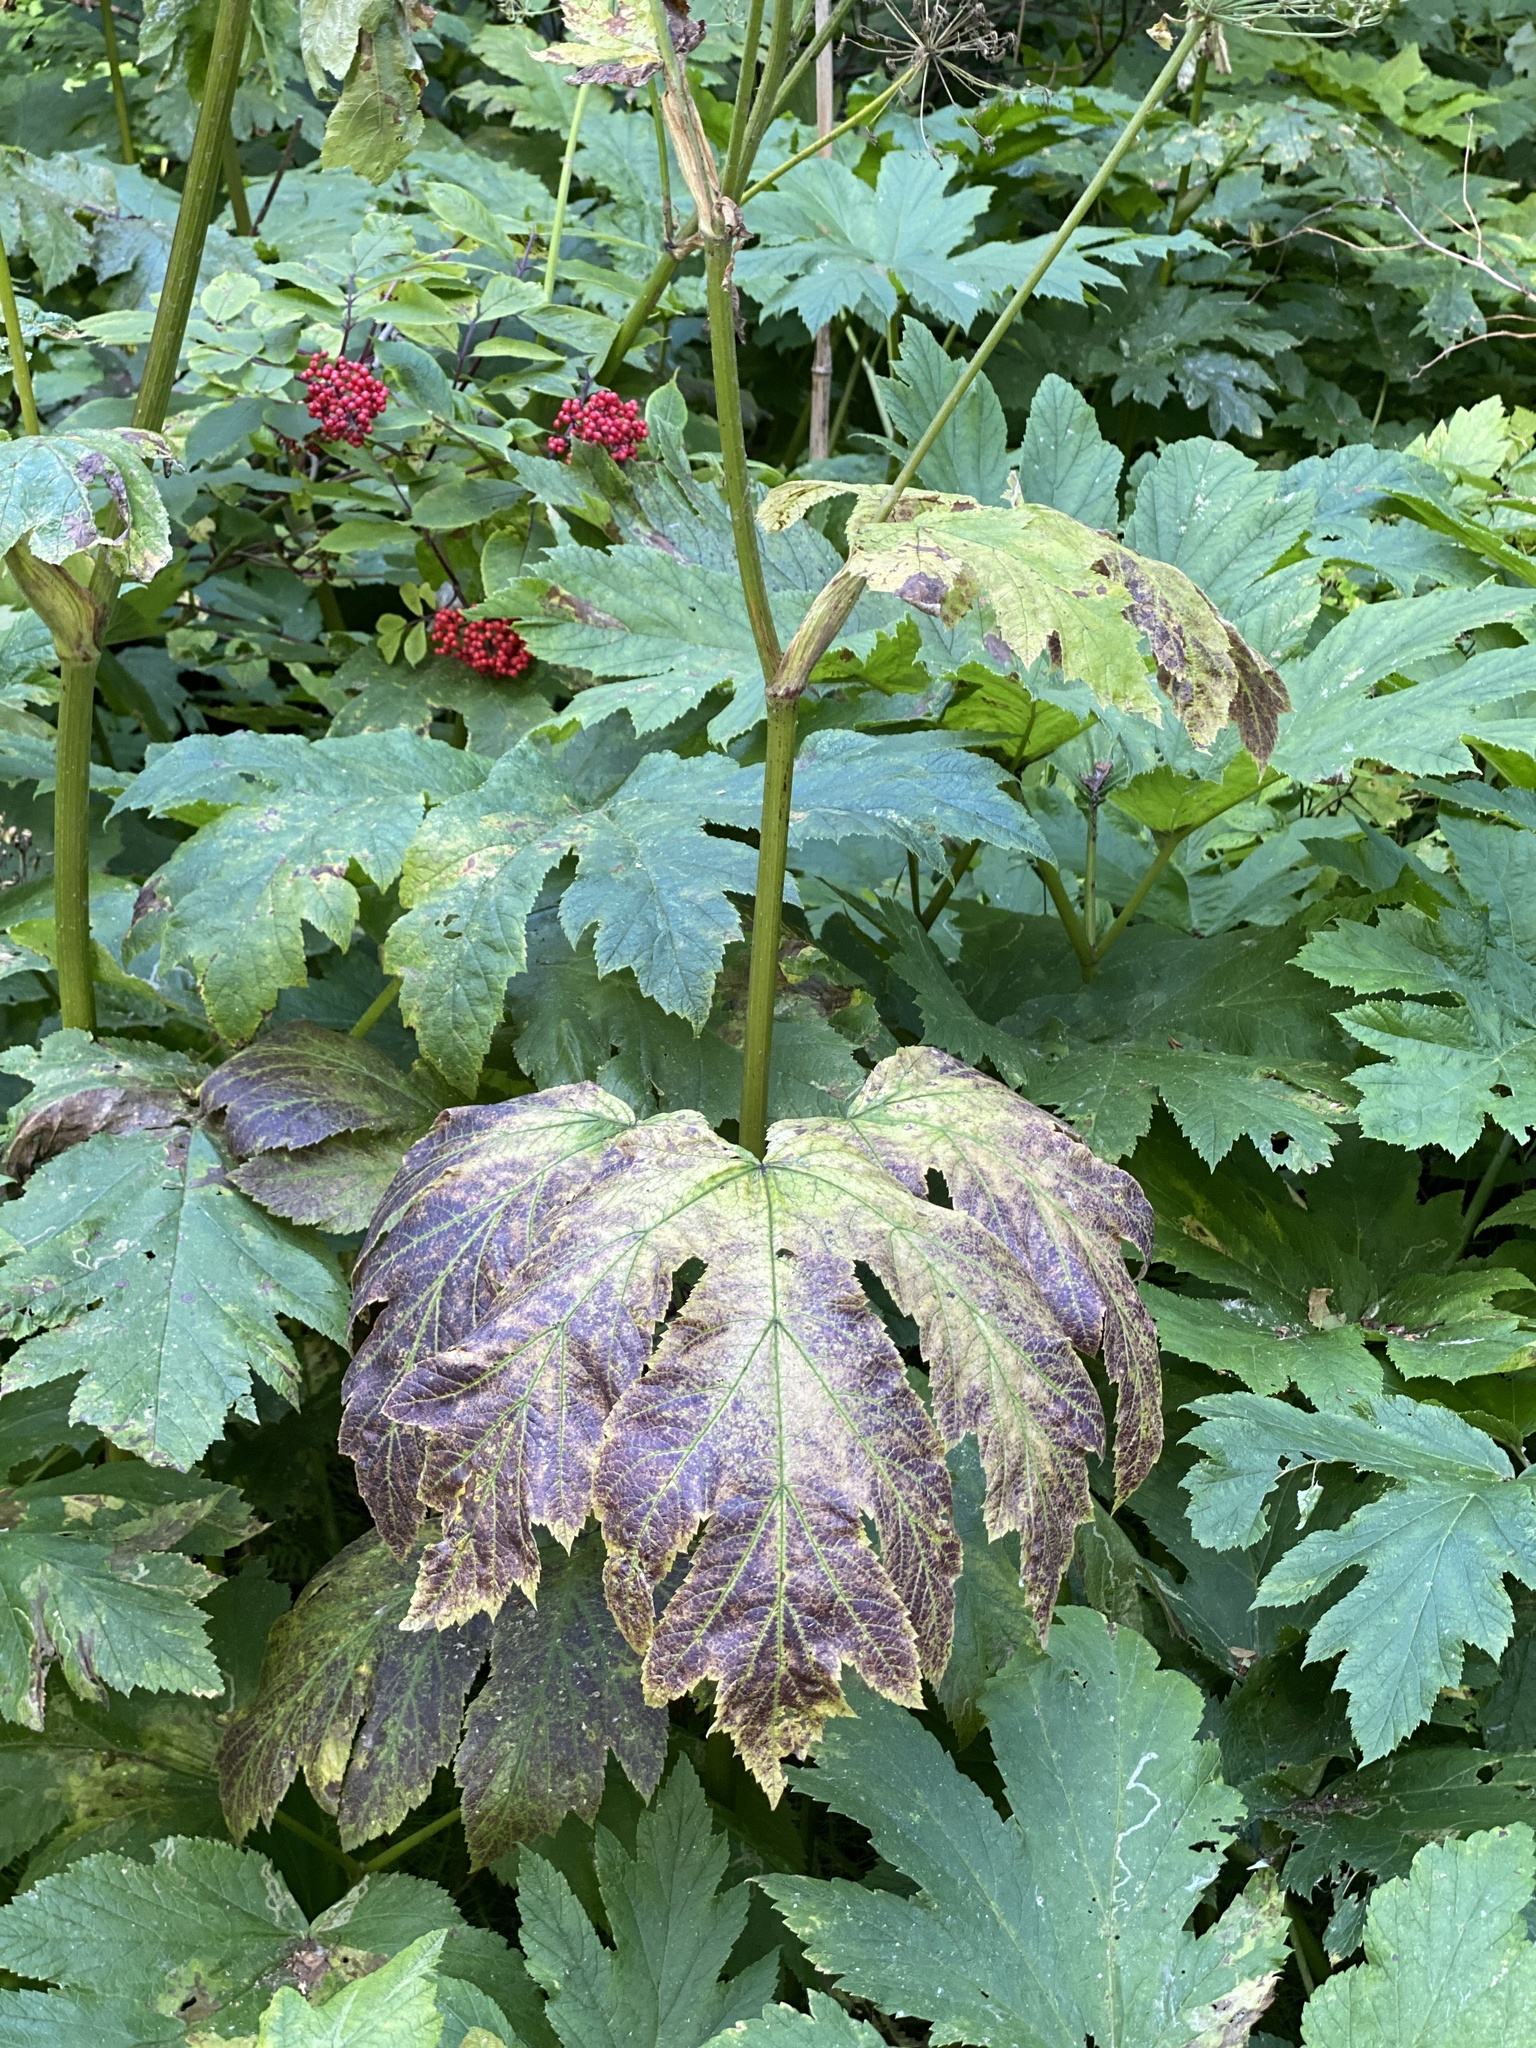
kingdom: Plantae
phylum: Tracheophyta
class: Magnoliopsida
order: Apiales
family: Apiaceae
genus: Heracleum
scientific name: Heracleum maximum
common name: American cow parsnip
